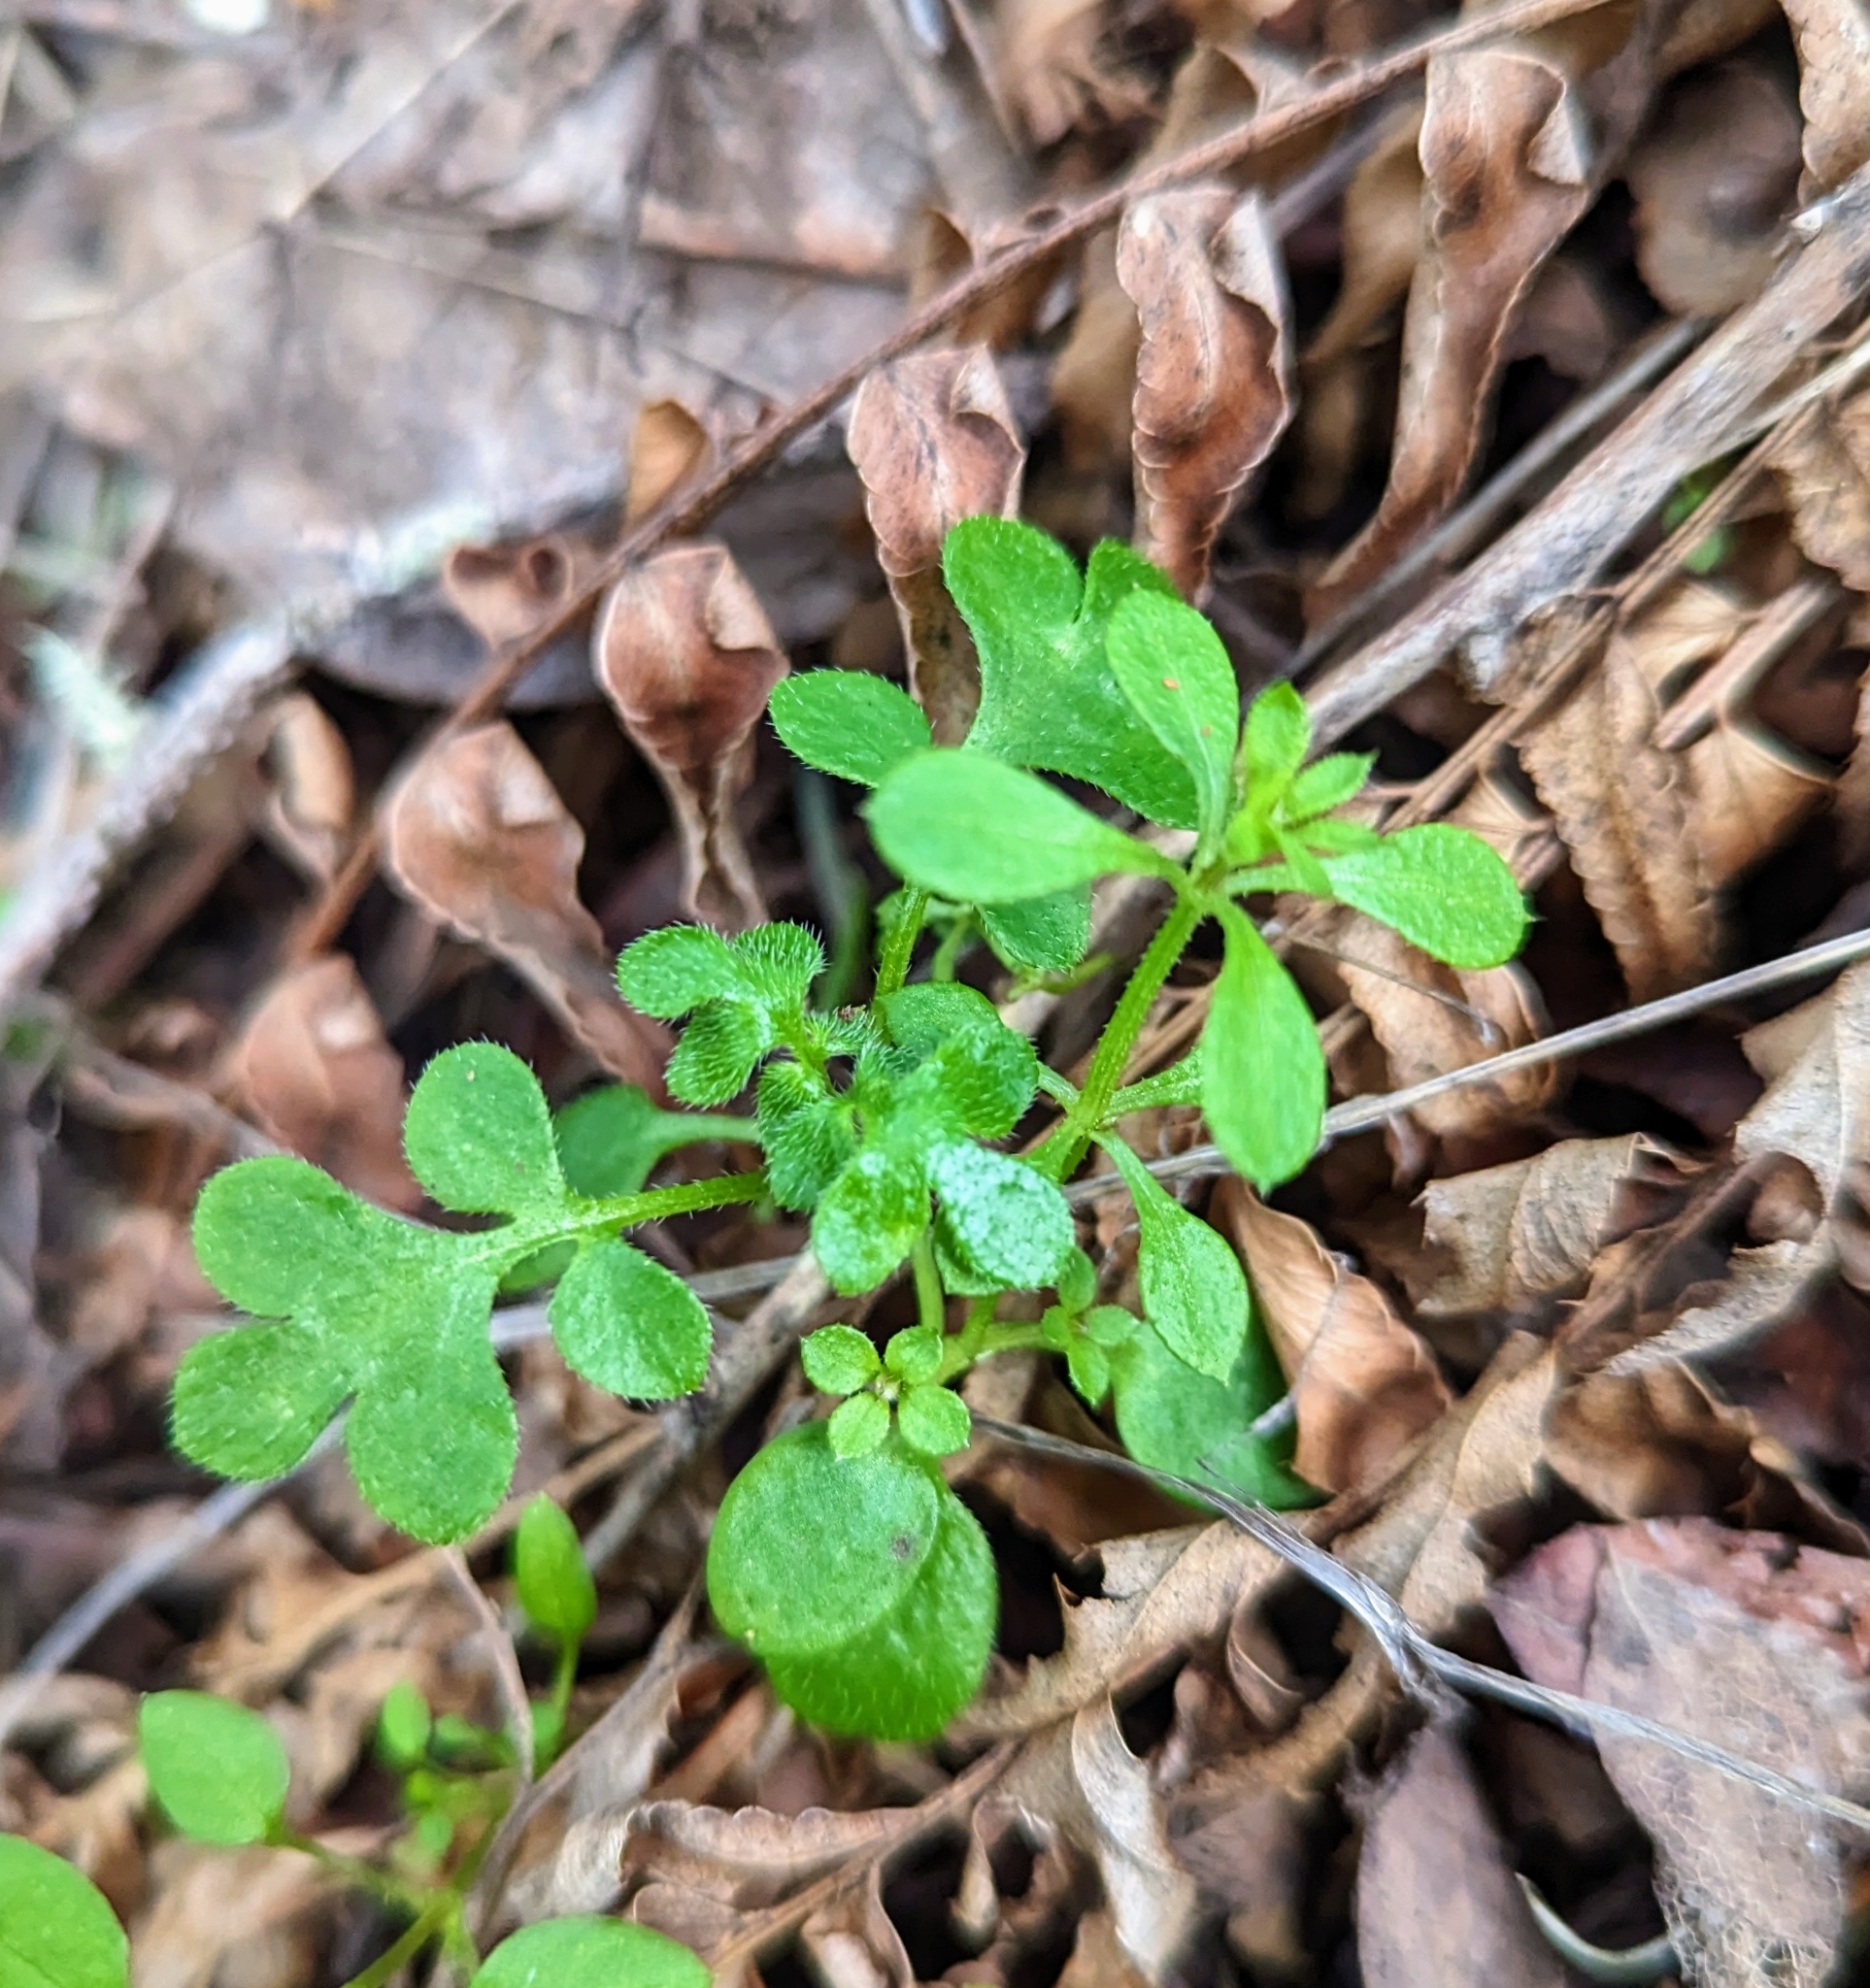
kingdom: Plantae
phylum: Tracheophyta
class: Magnoliopsida
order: Boraginales
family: Hydrophyllaceae
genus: Nemophila
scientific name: Nemophila parviflora
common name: Small-flowered baby-blue-eyes
